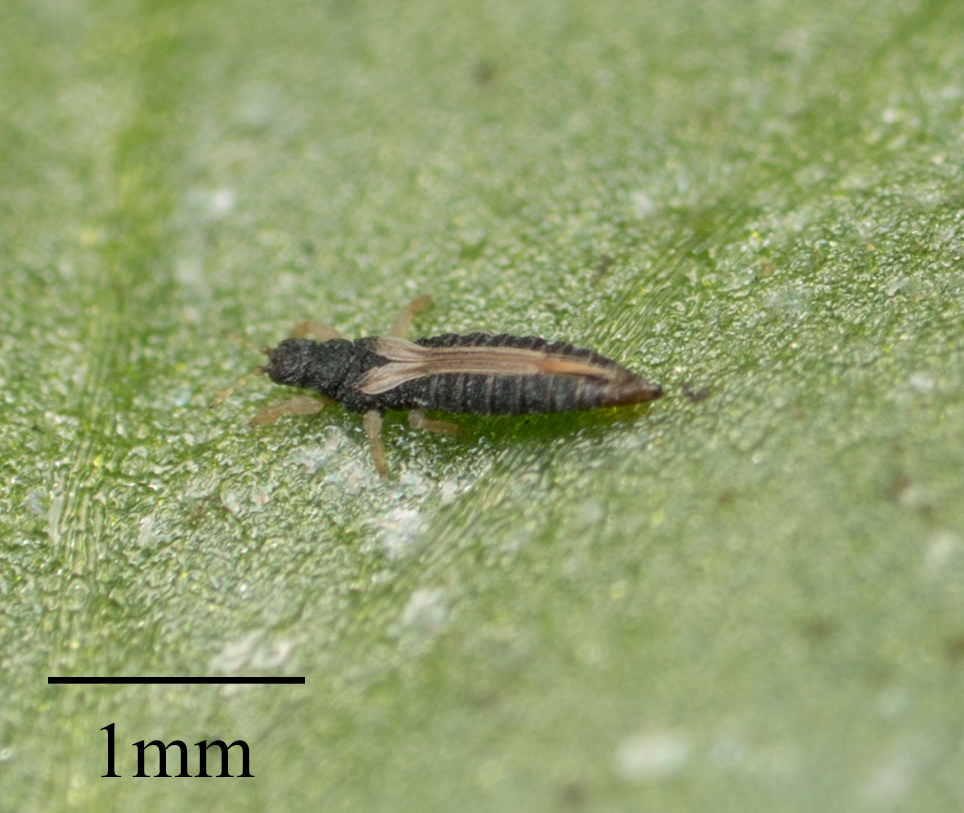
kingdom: Animalia
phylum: Arthropoda
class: Insecta
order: Thysanoptera
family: Thripidae
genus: Heliothrips
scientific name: Heliothrips haemorrhoidalis
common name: Thrips
